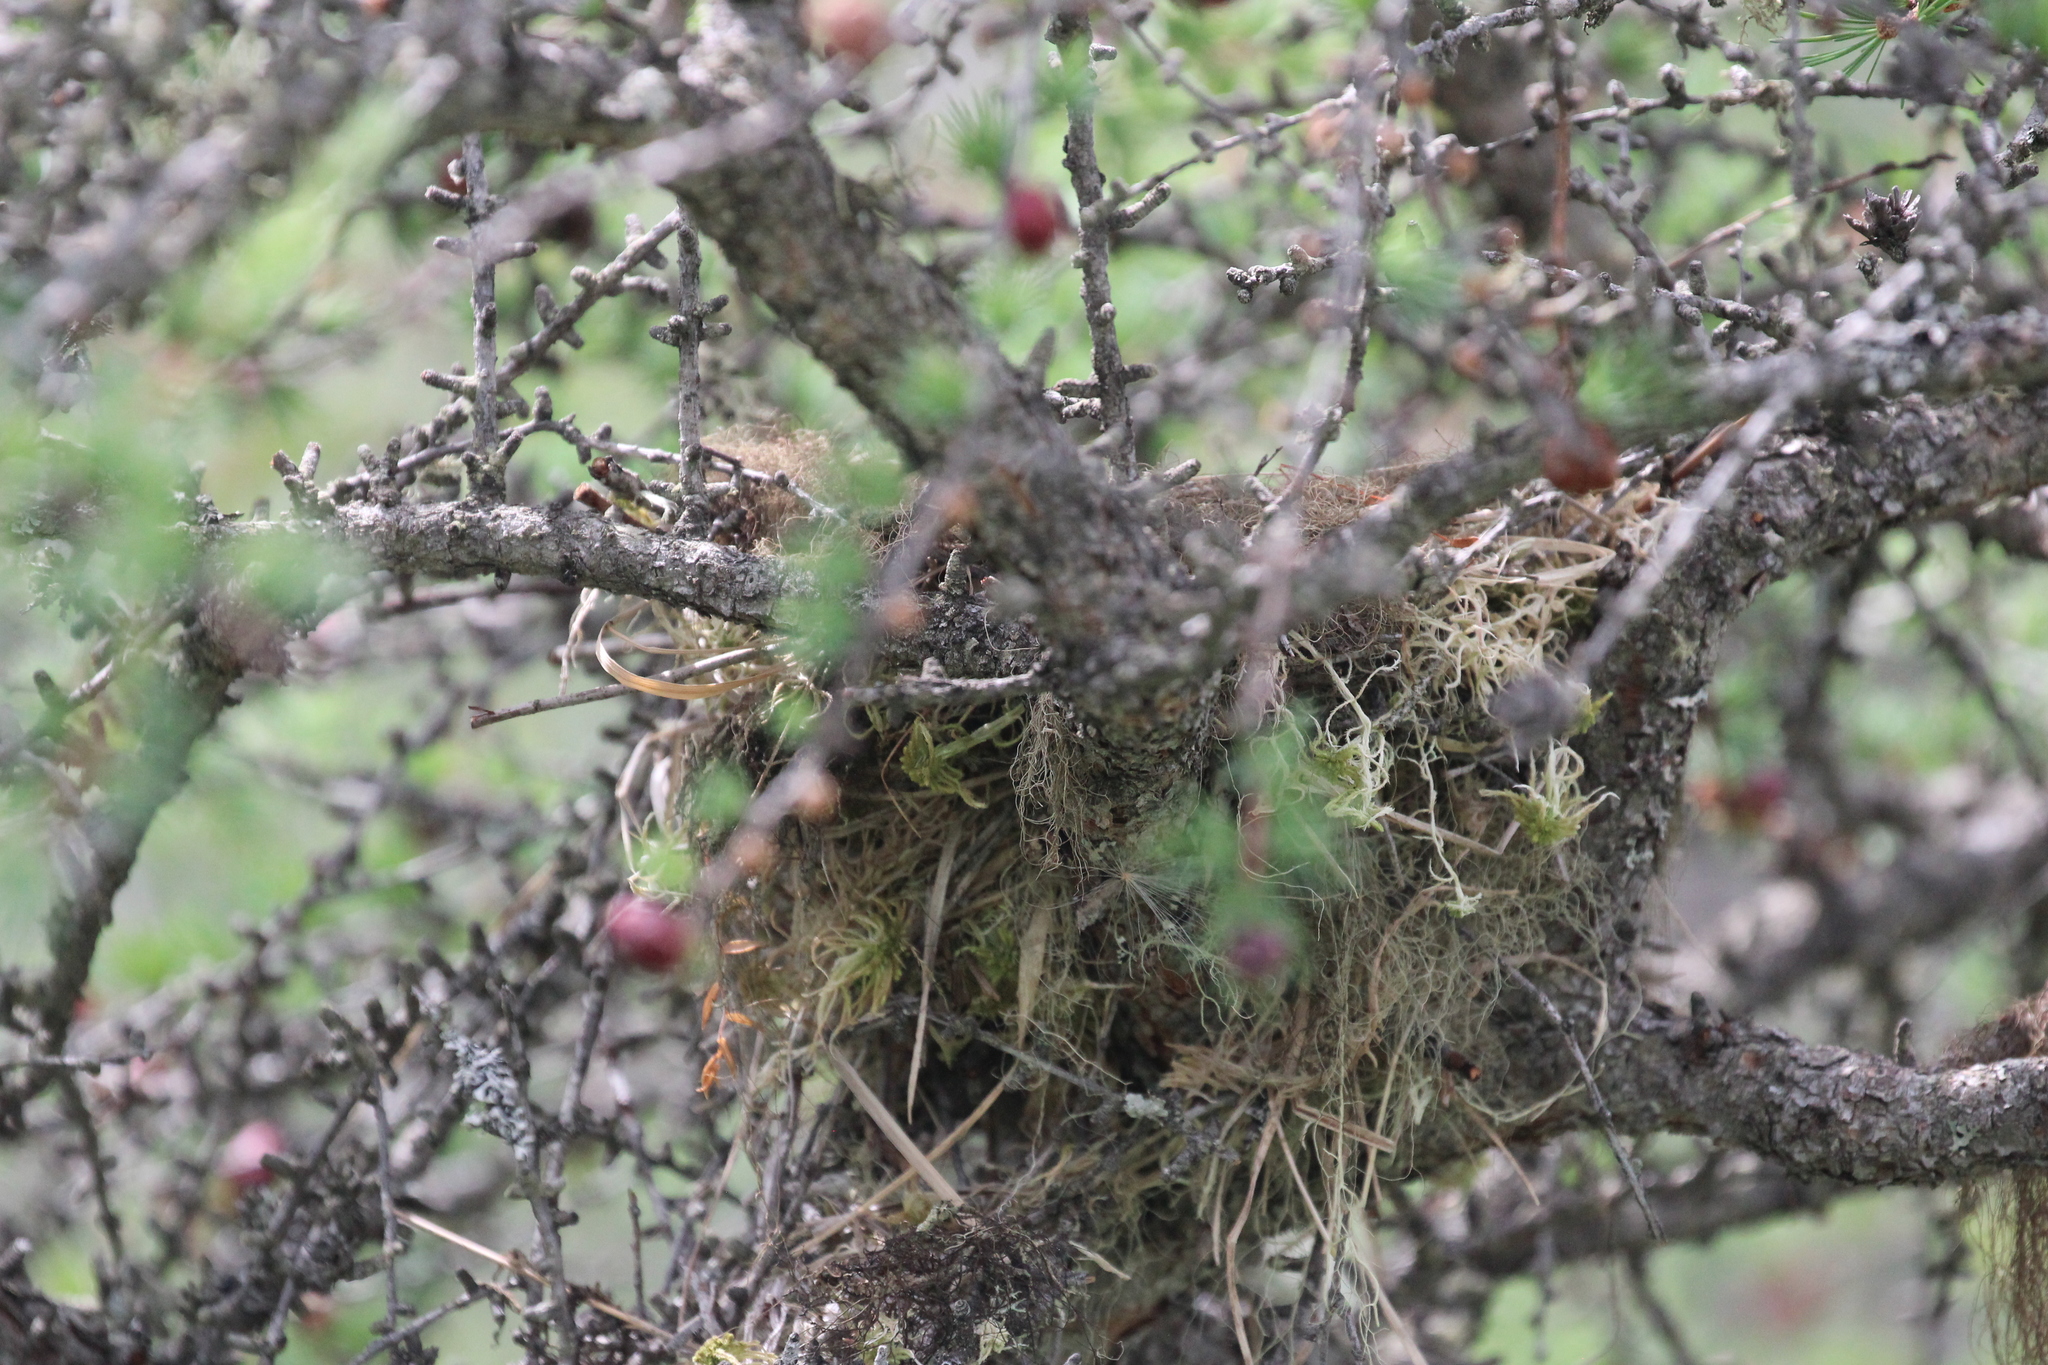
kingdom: Animalia
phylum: Chordata
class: Aves
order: Passeriformes
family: Parulidae
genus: Geothlypis
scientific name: Geothlypis trichas
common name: Common yellowthroat
